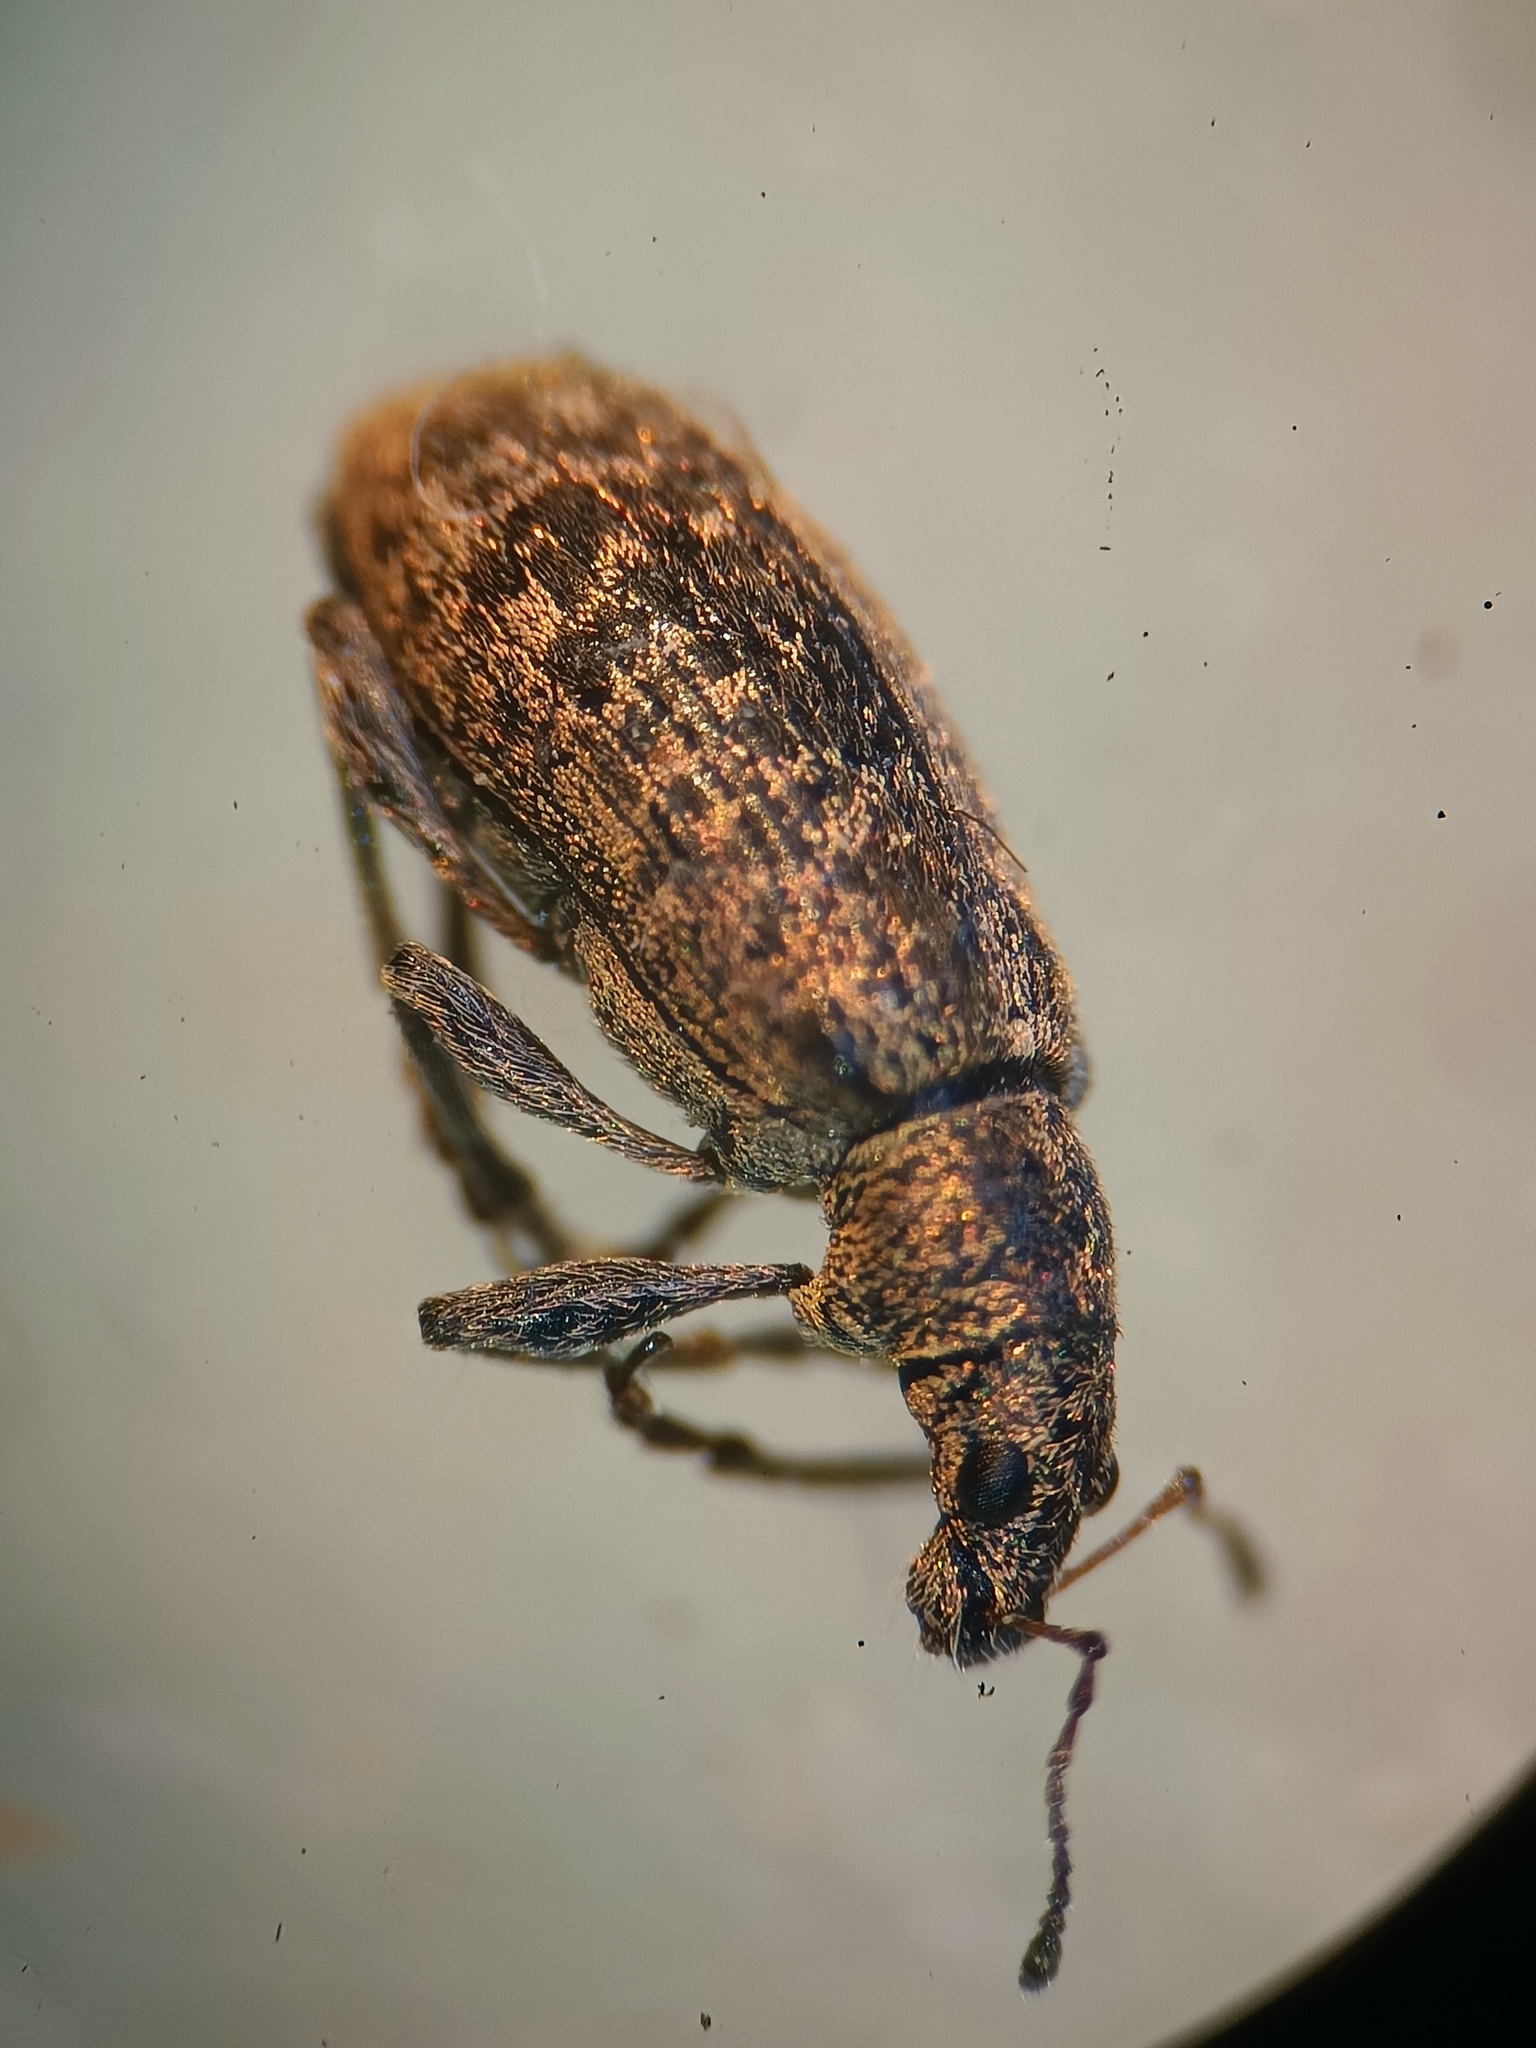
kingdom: Animalia
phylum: Arthropoda
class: Insecta
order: Coleoptera
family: Curculionidae
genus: Polydrusus
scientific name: Polydrusus cervinus
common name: Weevil
